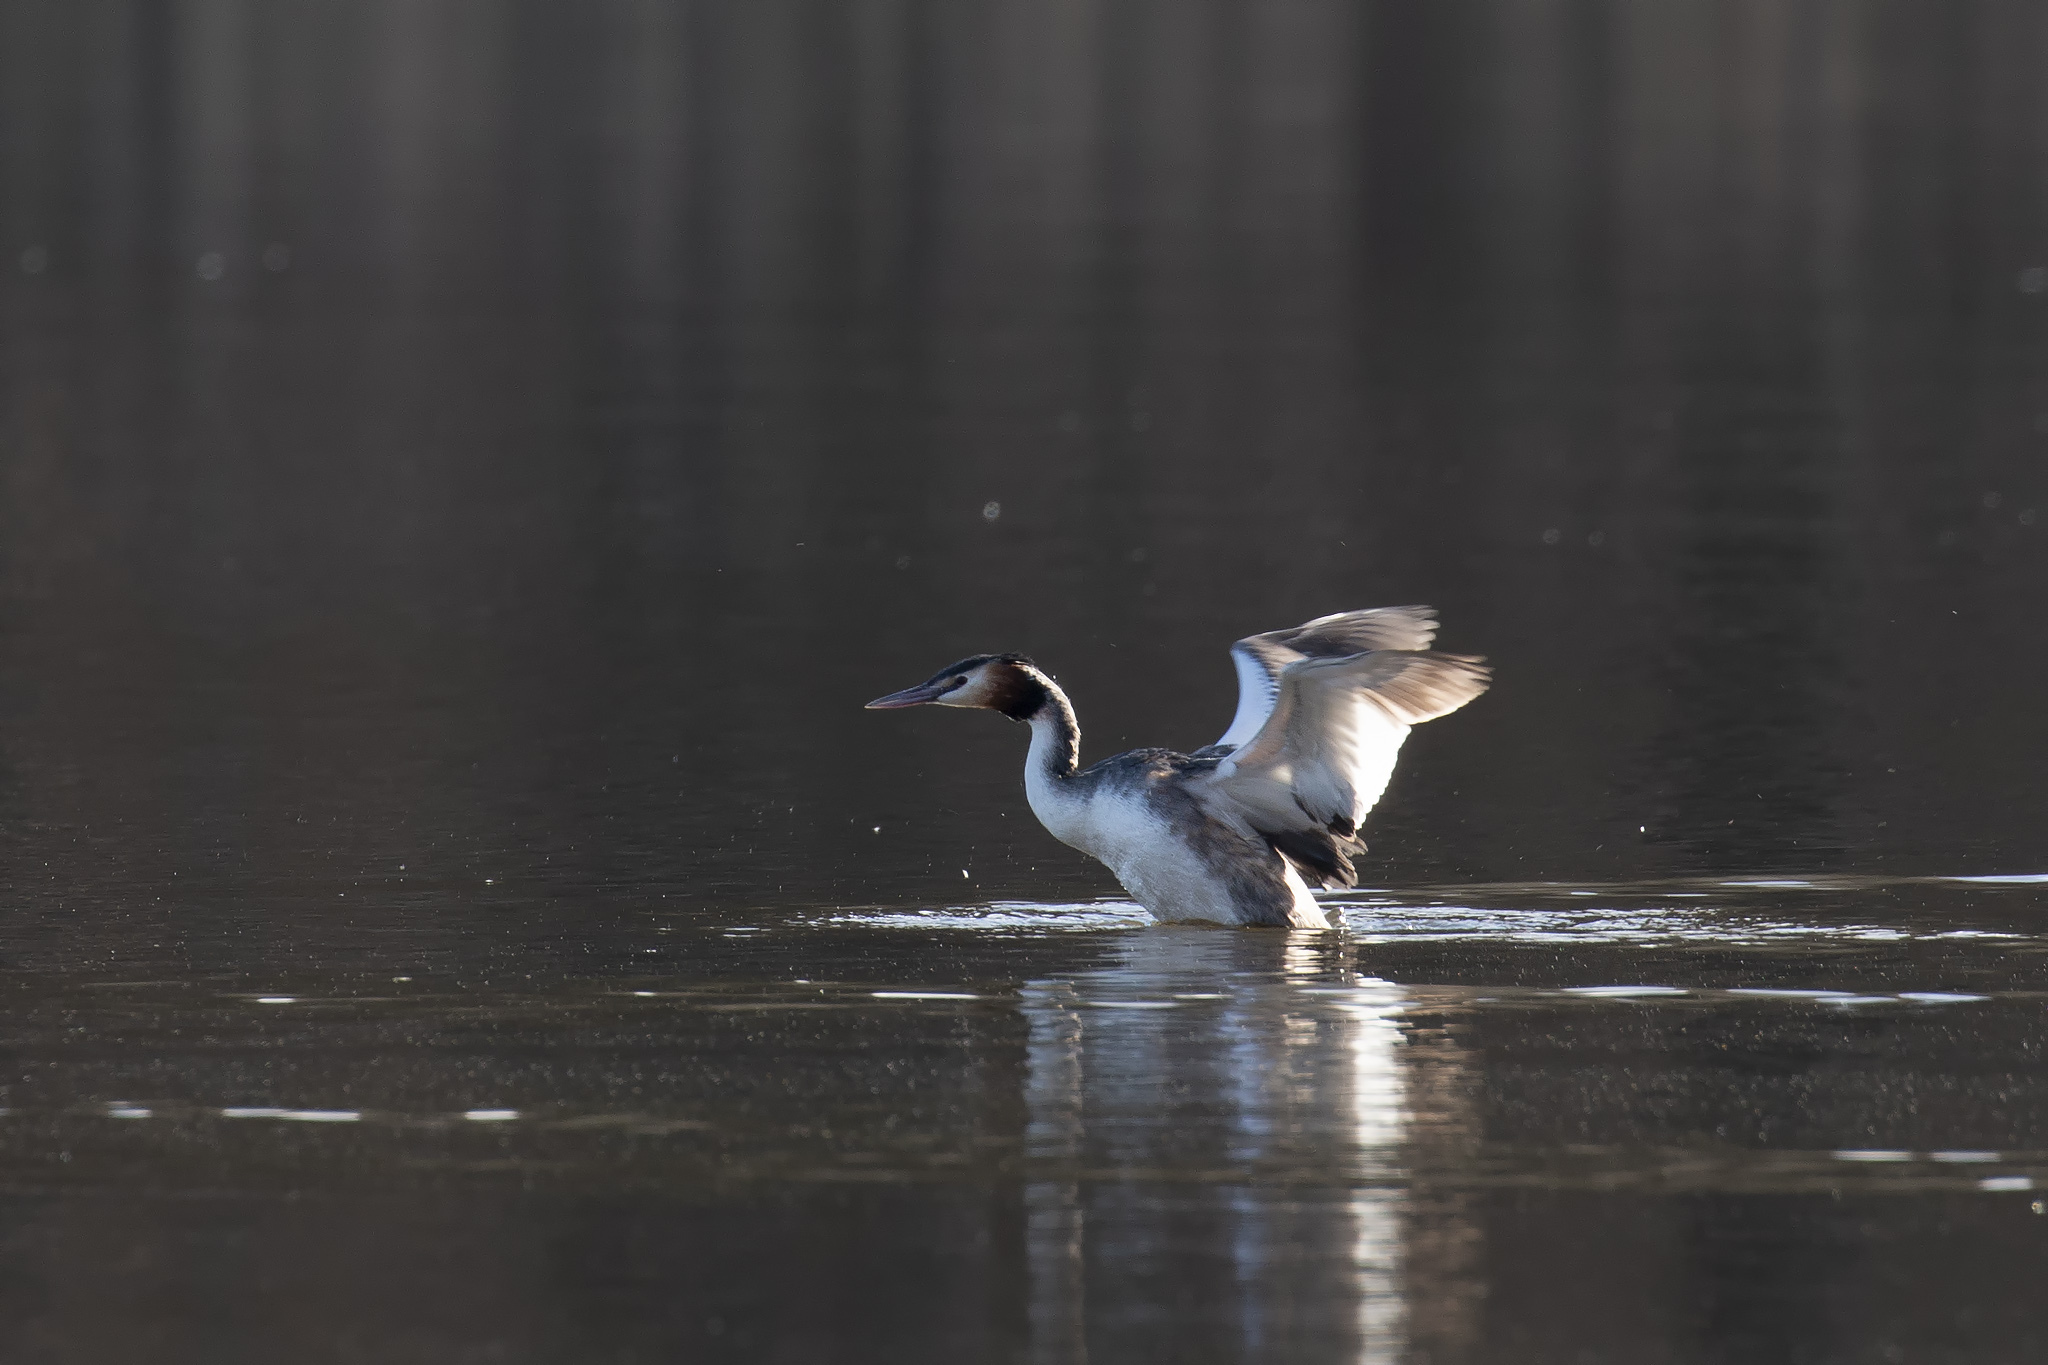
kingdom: Animalia
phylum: Chordata
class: Aves
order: Podicipediformes
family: Podicipedidae
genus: Podiceps
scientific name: Podiceps cristatus
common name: Great crested grebe
